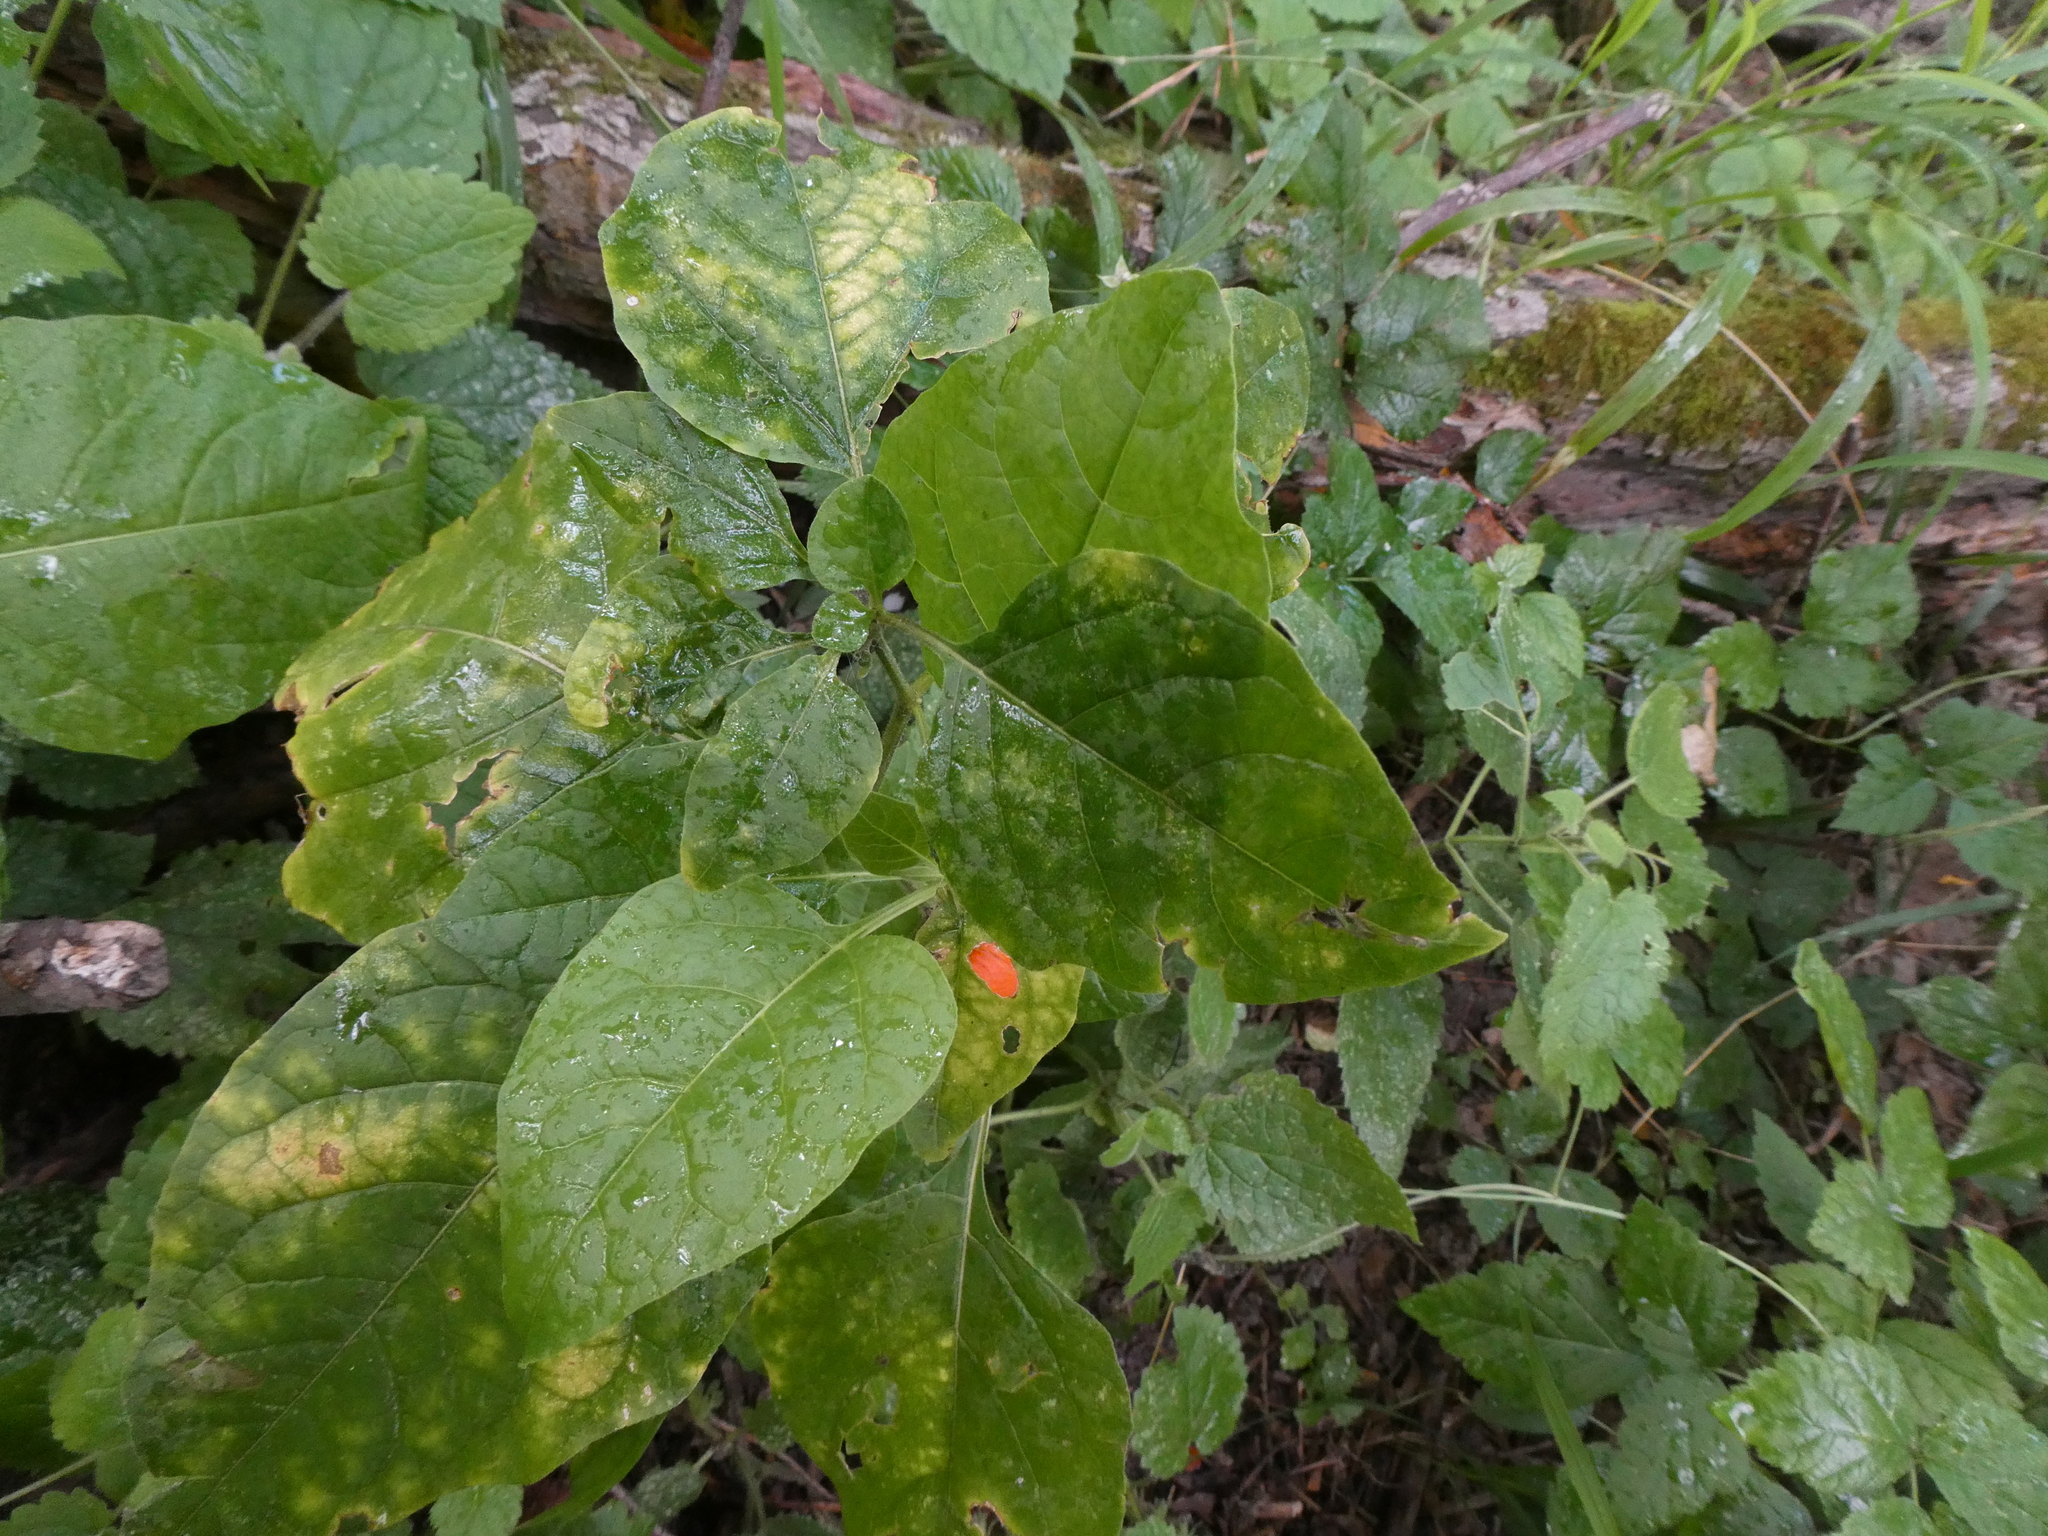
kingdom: Plantae
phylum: Tracheophyta
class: Magnoliopsida
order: Solanales
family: Solanaceae
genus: Alkekengi
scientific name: Alkekengi officinarum
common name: Japanese-lantern
